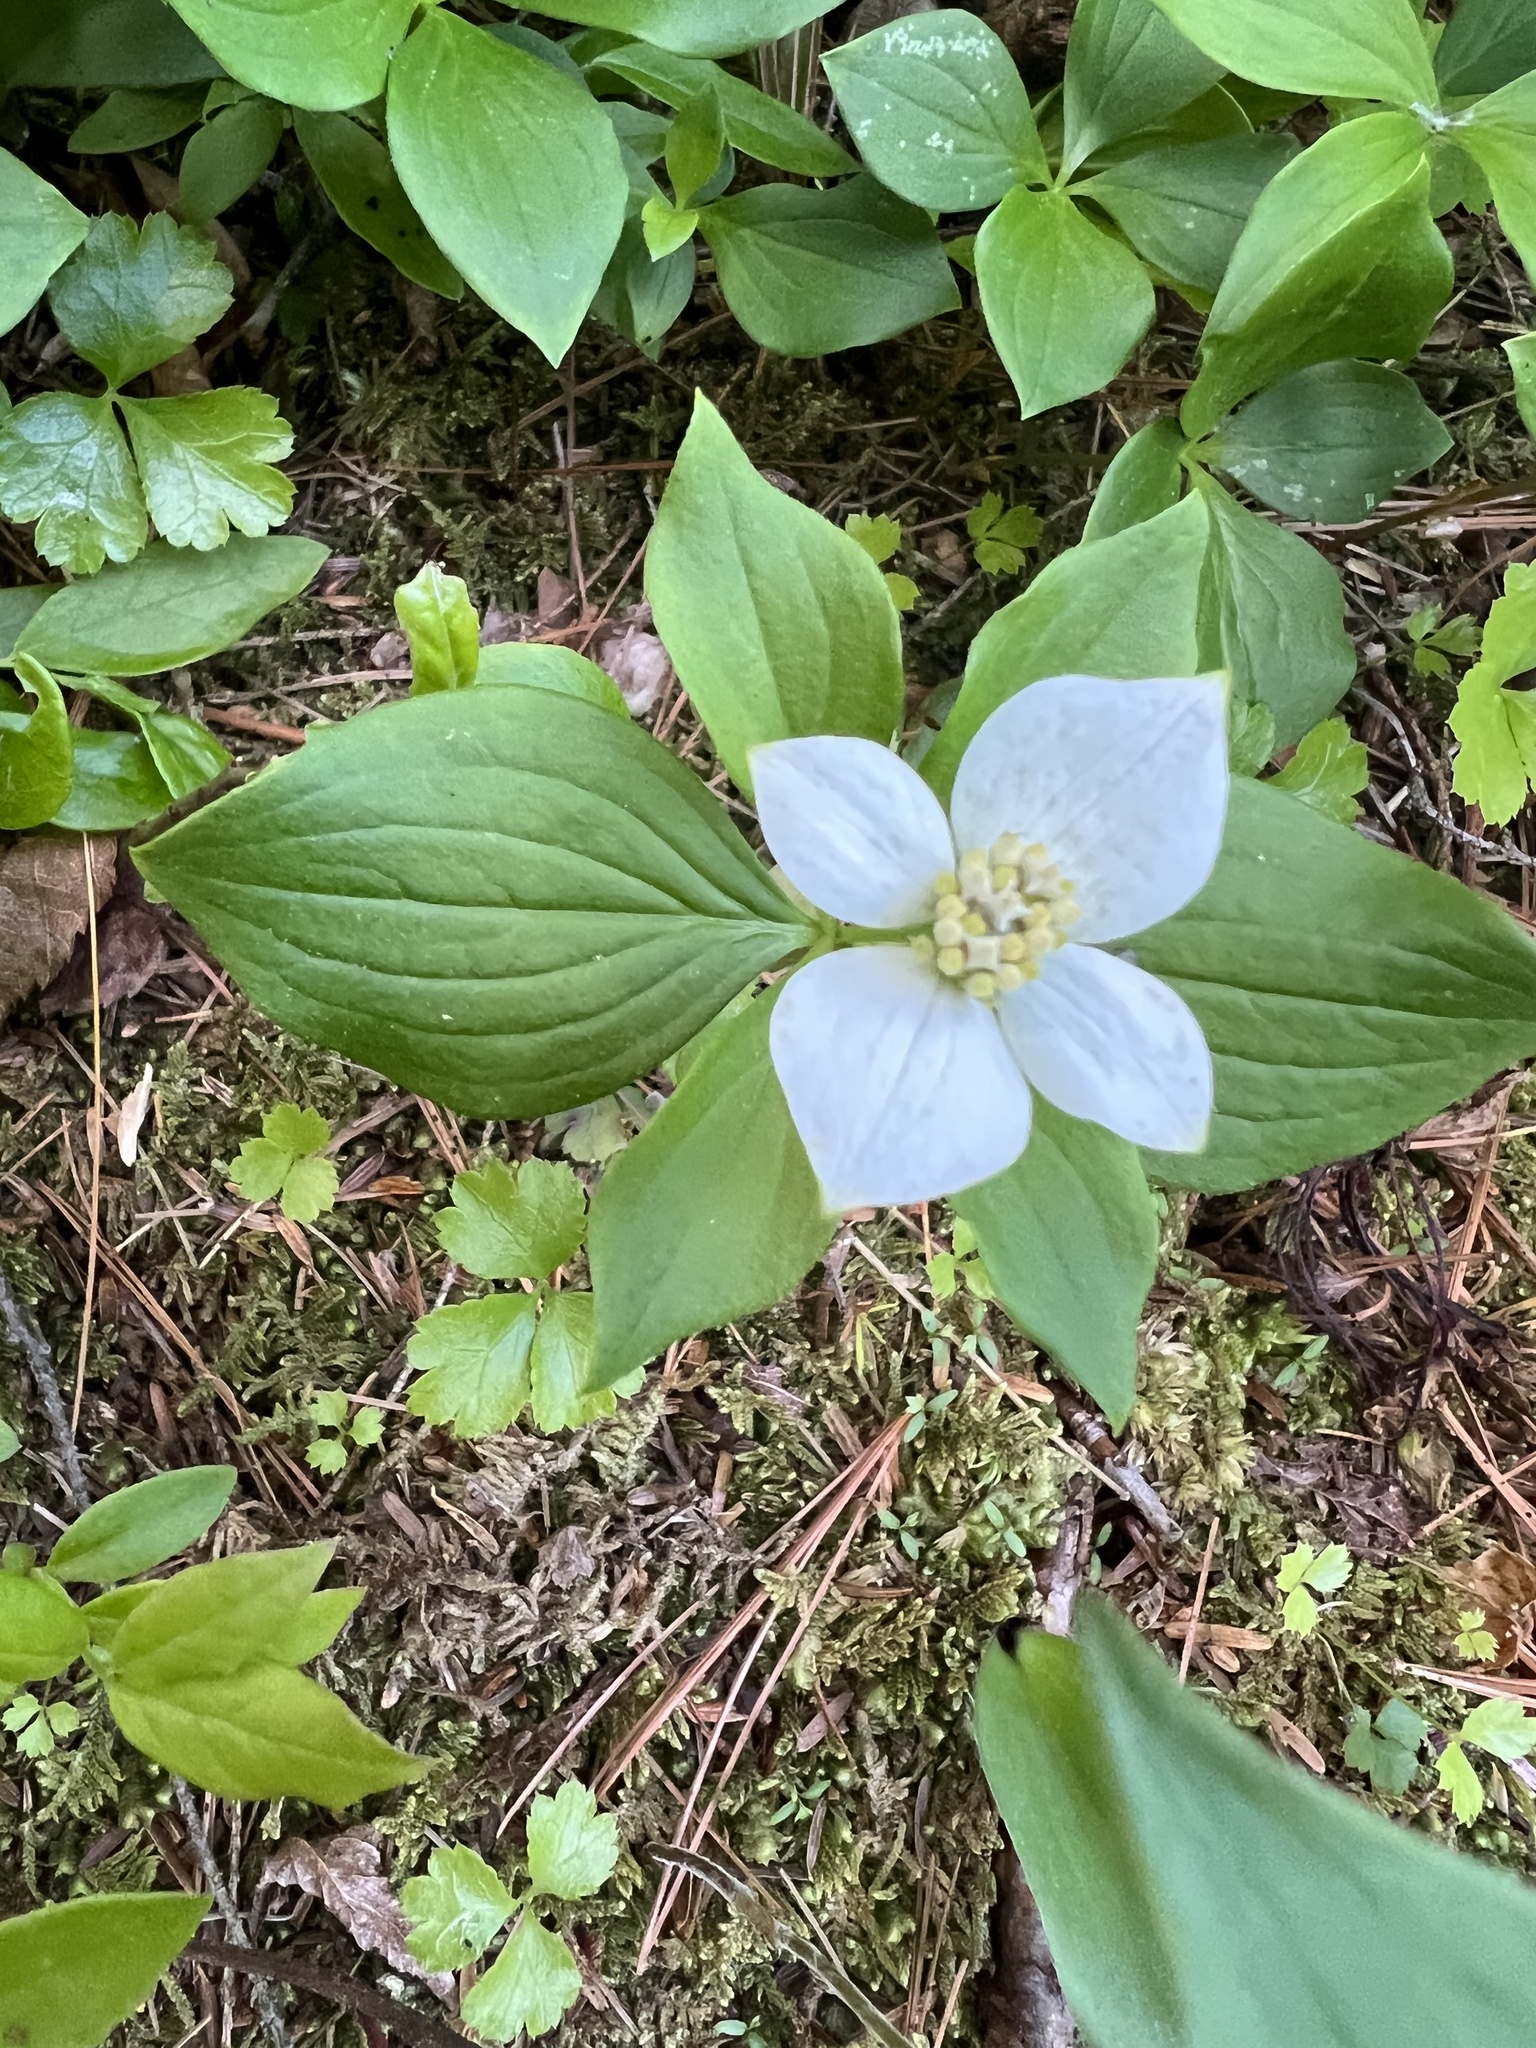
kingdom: Plantae
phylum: Tracheophyta
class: Magnoliopsida
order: Cornales
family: Cornaceae
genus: Cornus
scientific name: Cornus canadensis
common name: Creeping dogwood
